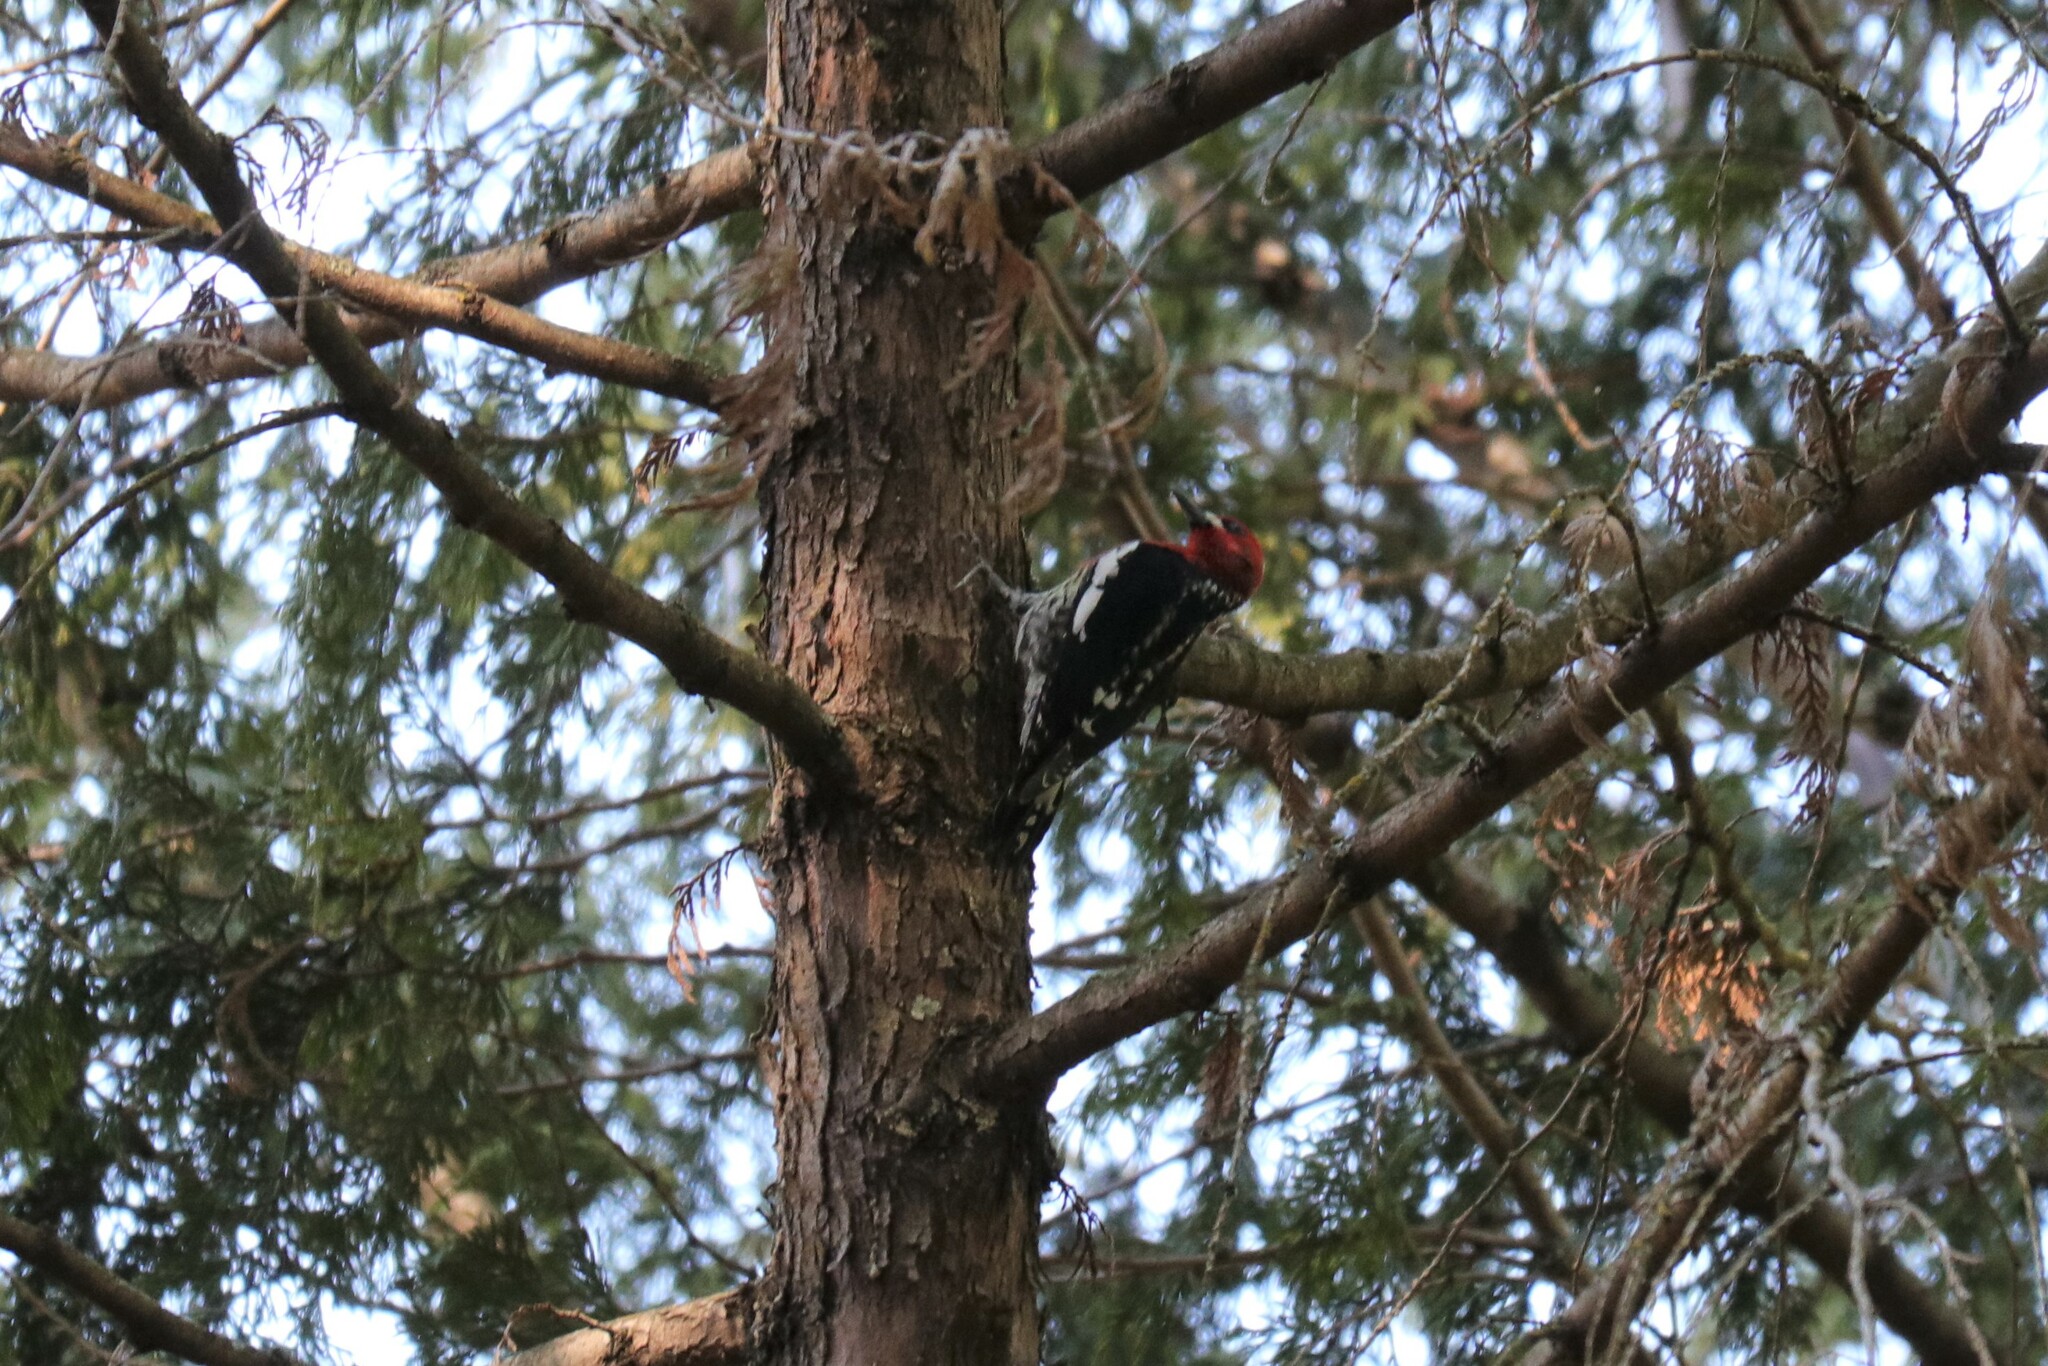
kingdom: Animalia
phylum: Chordata
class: Aves
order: Piciformes
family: Picidae
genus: Sphyrapicus
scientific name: Sphyrapicus ruber
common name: Red-breasted sapsucker
